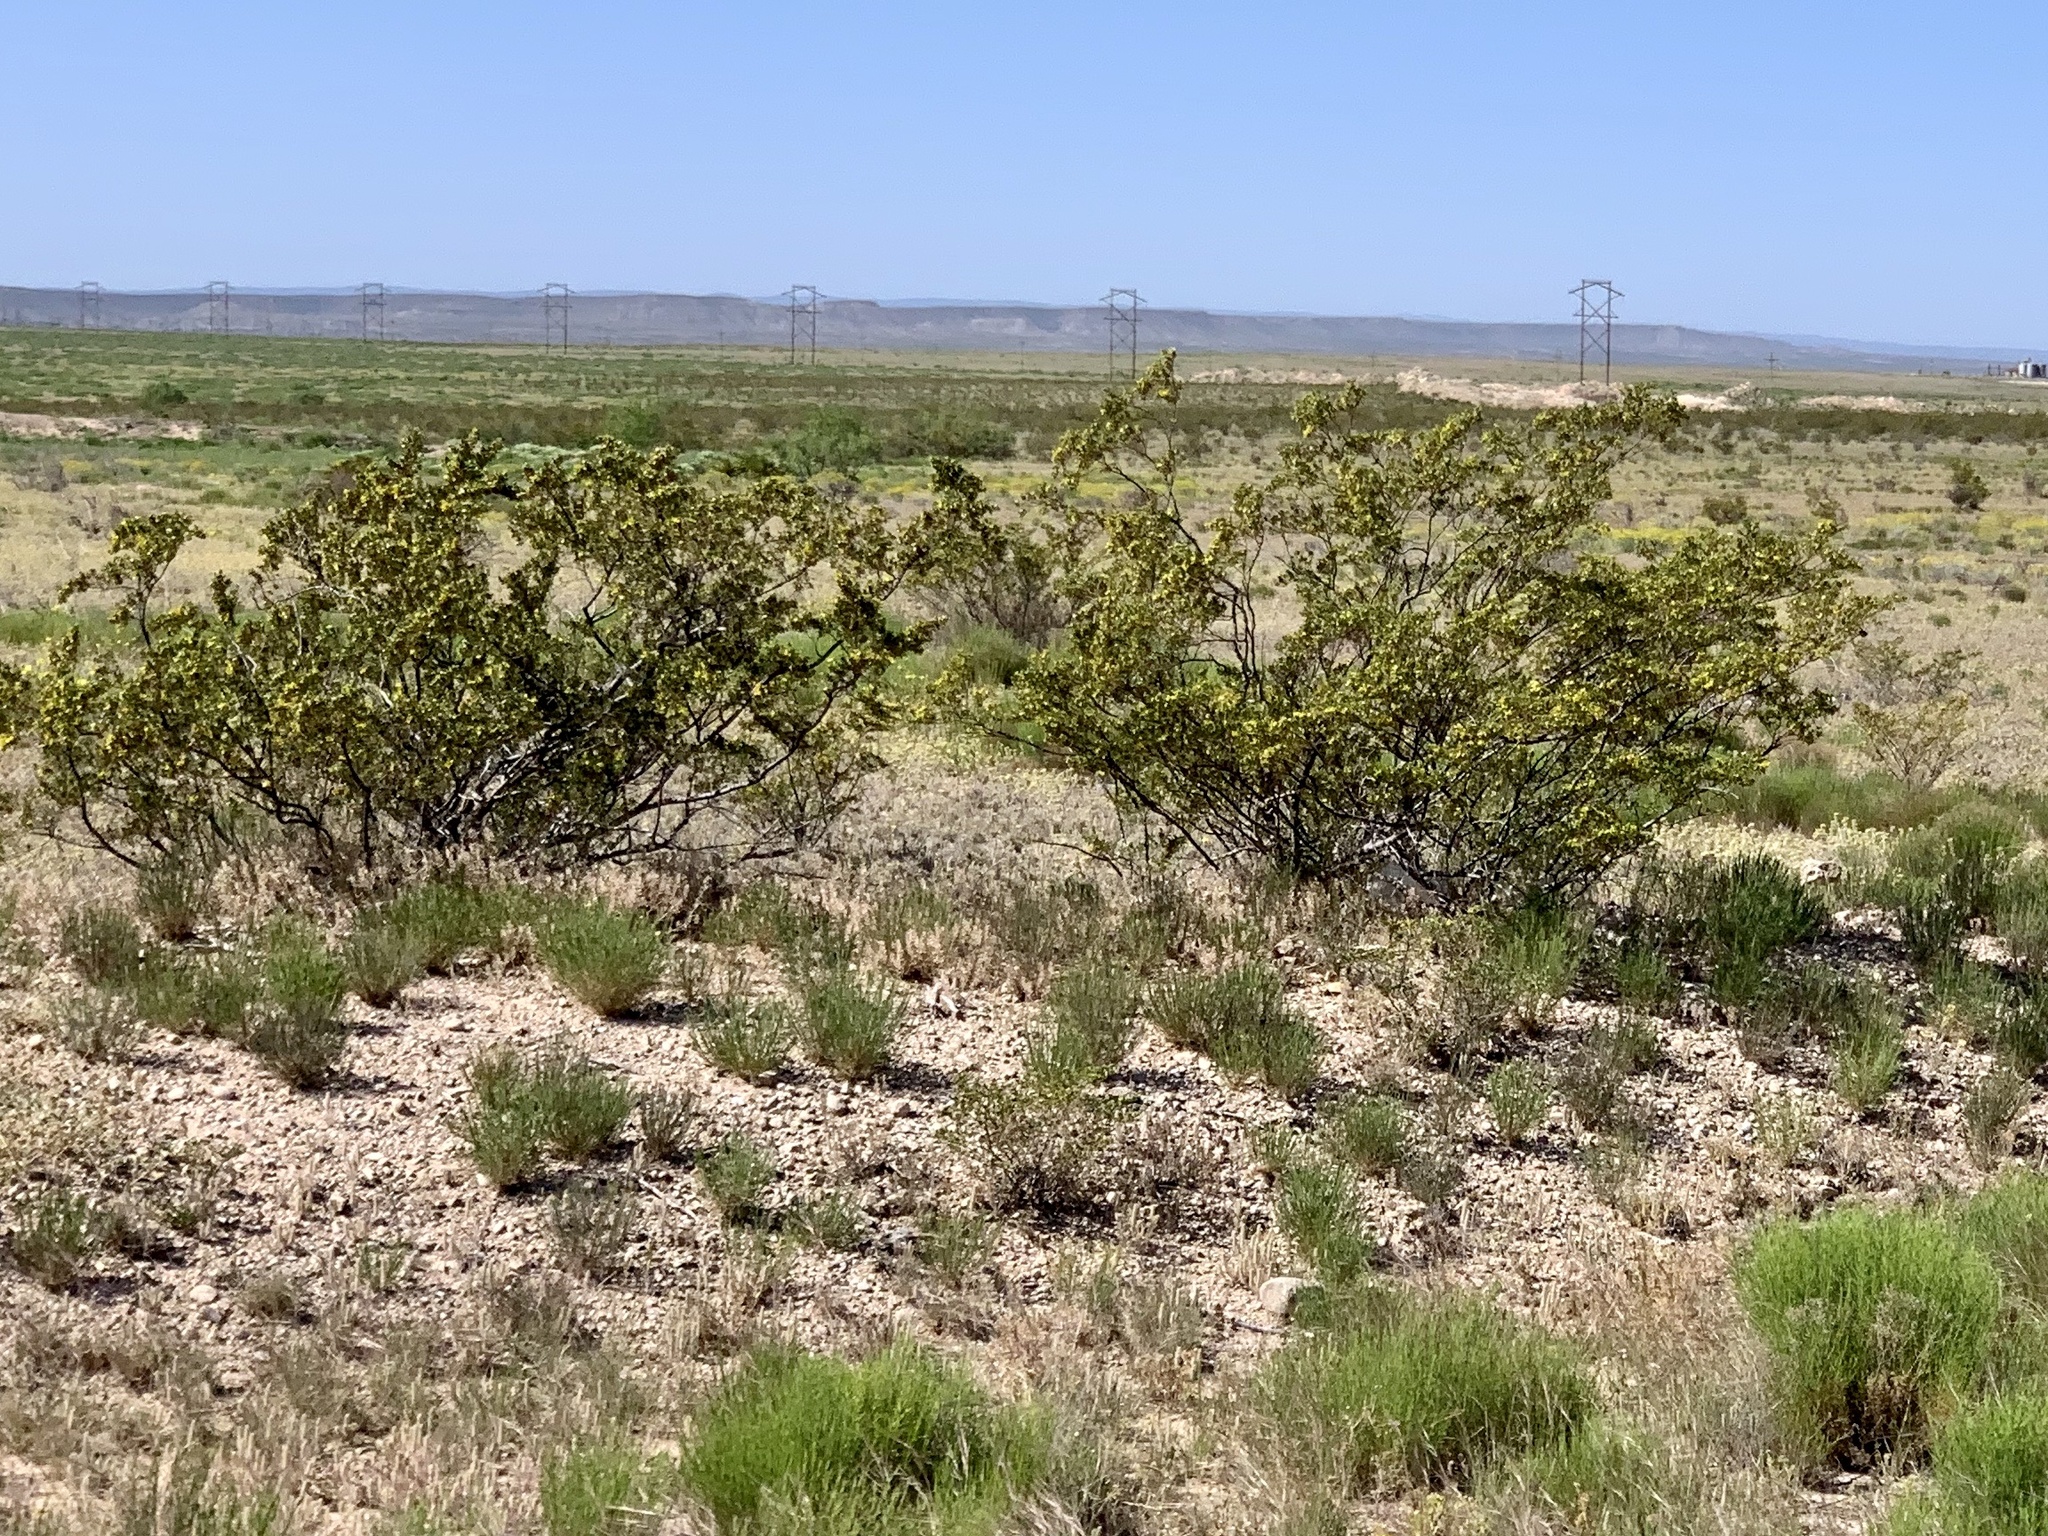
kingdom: Plantae
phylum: Tracheophyta
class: Magnoliopsida
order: Zygophyllales
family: Zygophyllaceae
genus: Larrea
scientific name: Larrea tridentata
